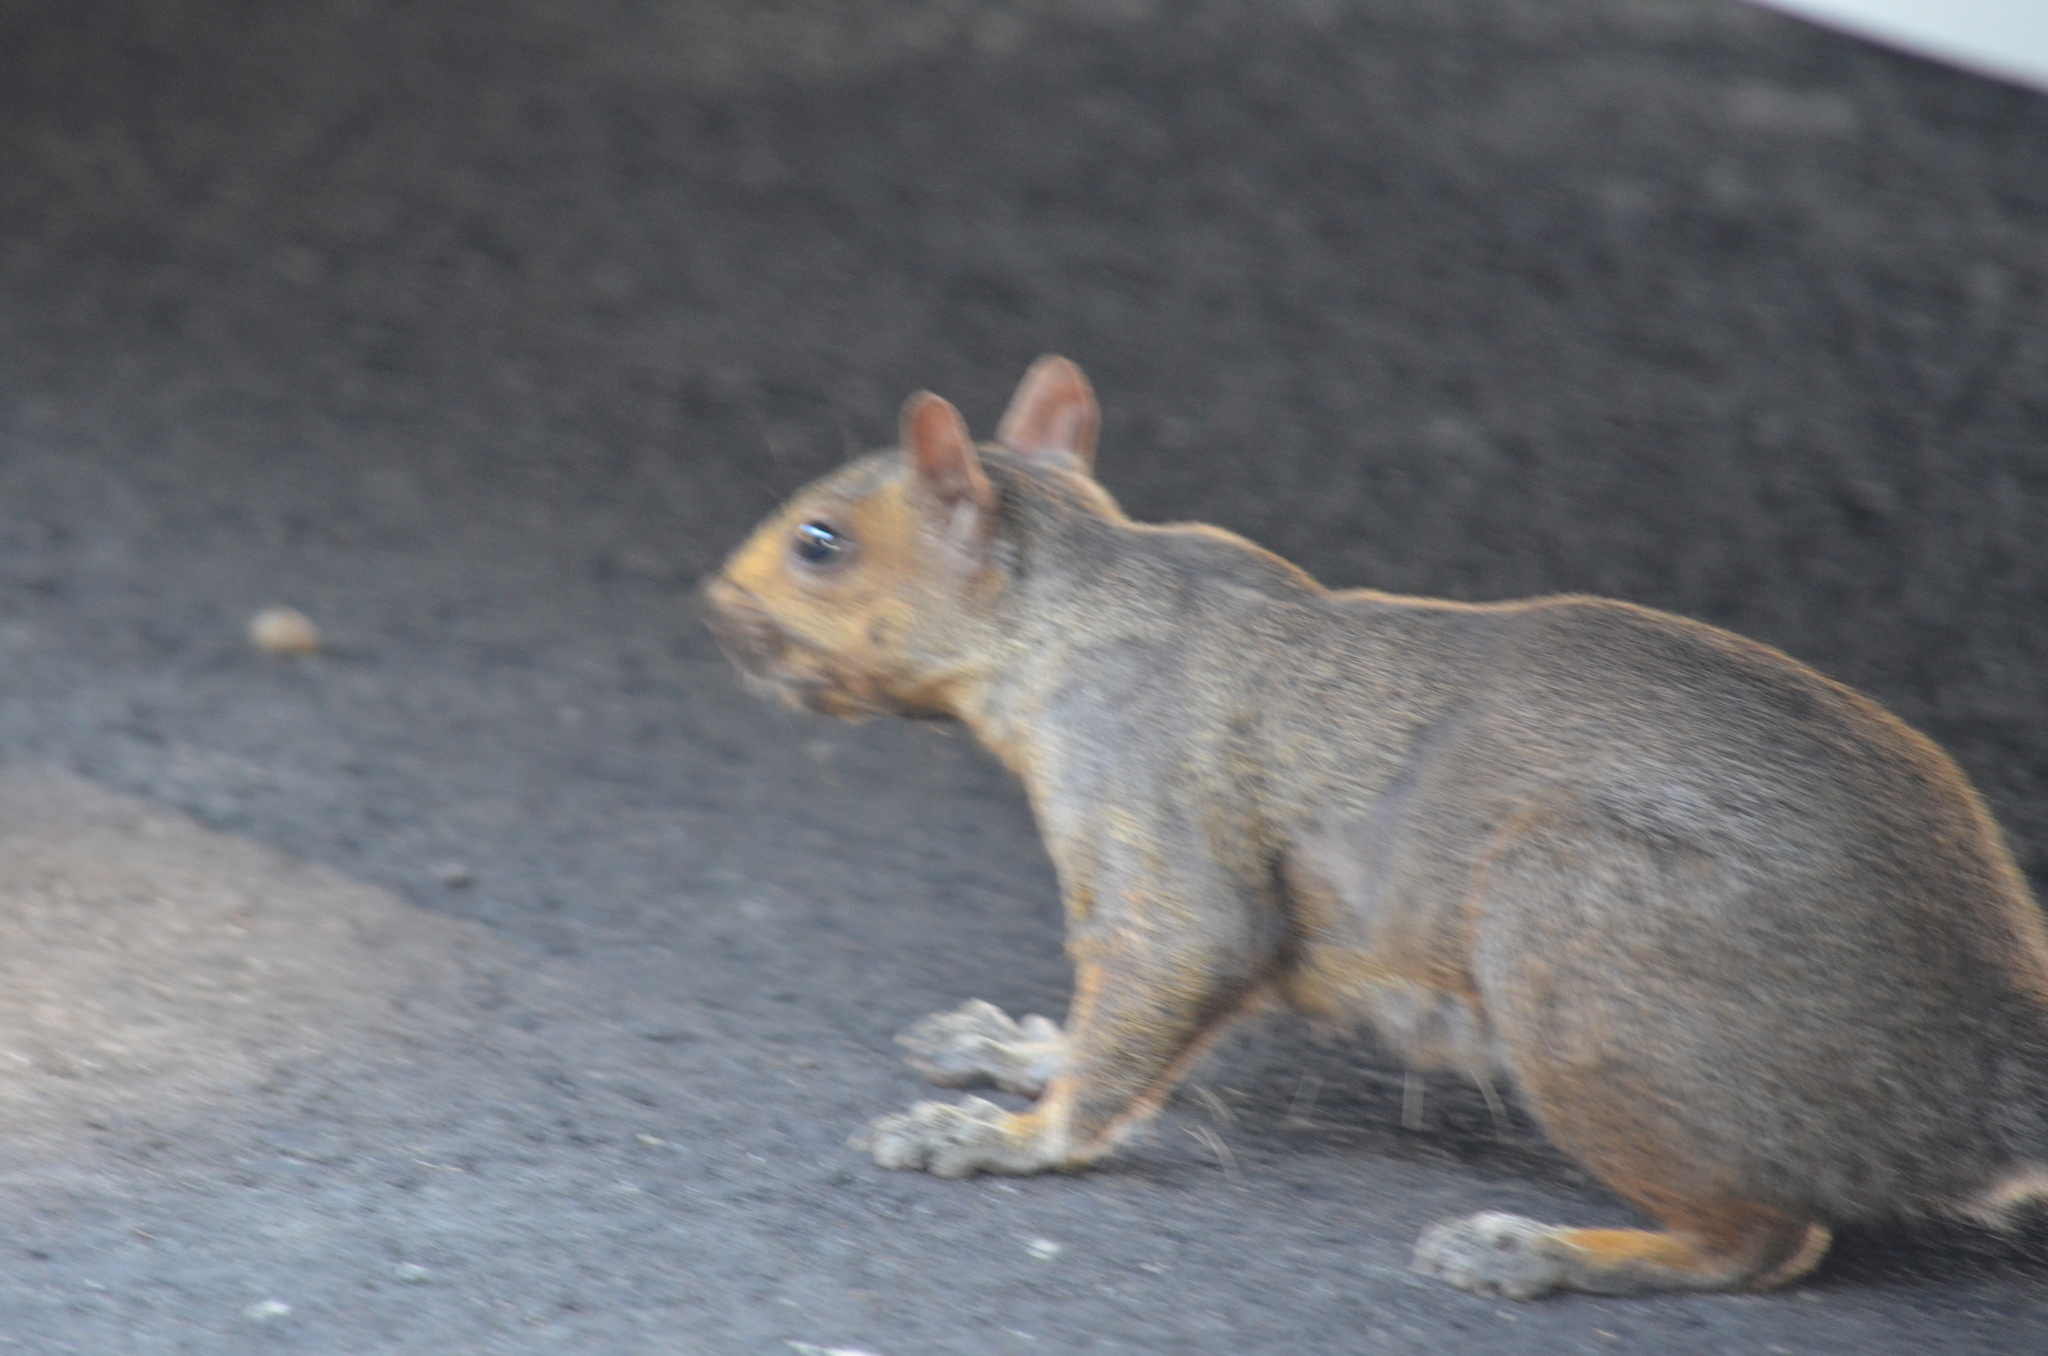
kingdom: Animalia
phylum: Chordata
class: Mammalia
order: Rodentia
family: Sciuridae
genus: Sciurus
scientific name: Sciurus carolinensis
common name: Eastern gray squirrel
